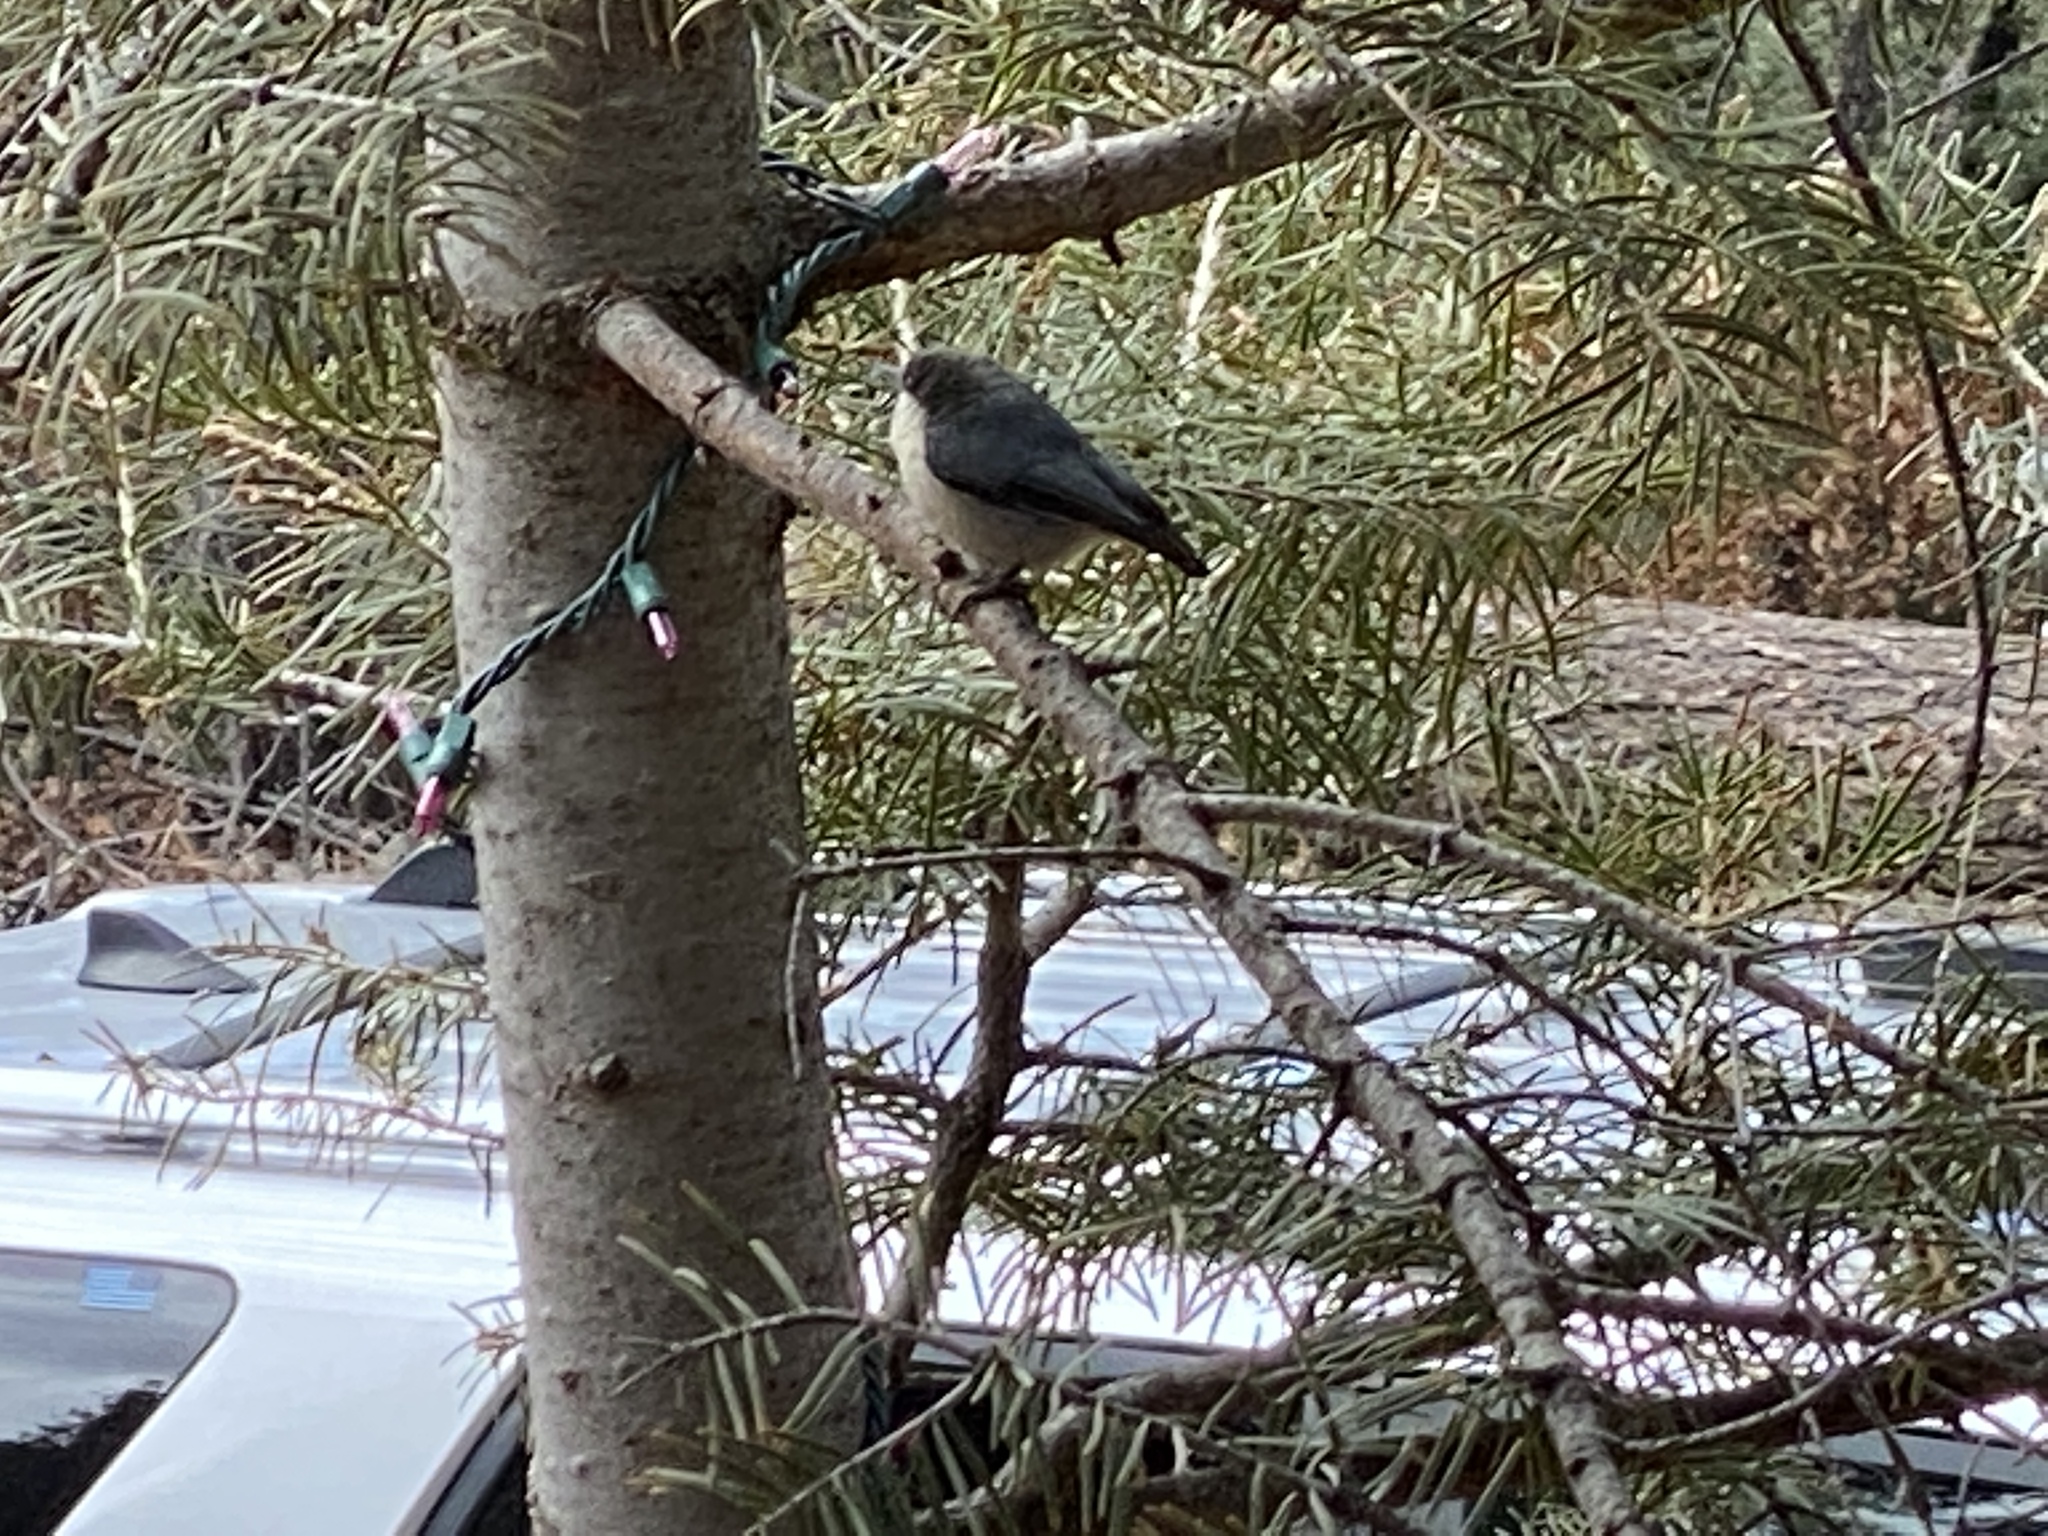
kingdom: Animalia
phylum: Chordata
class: Aves
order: Passeriformes
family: Sittidae
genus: Sitta
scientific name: Sitta pygmaea
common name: Pygmy nuthatch
